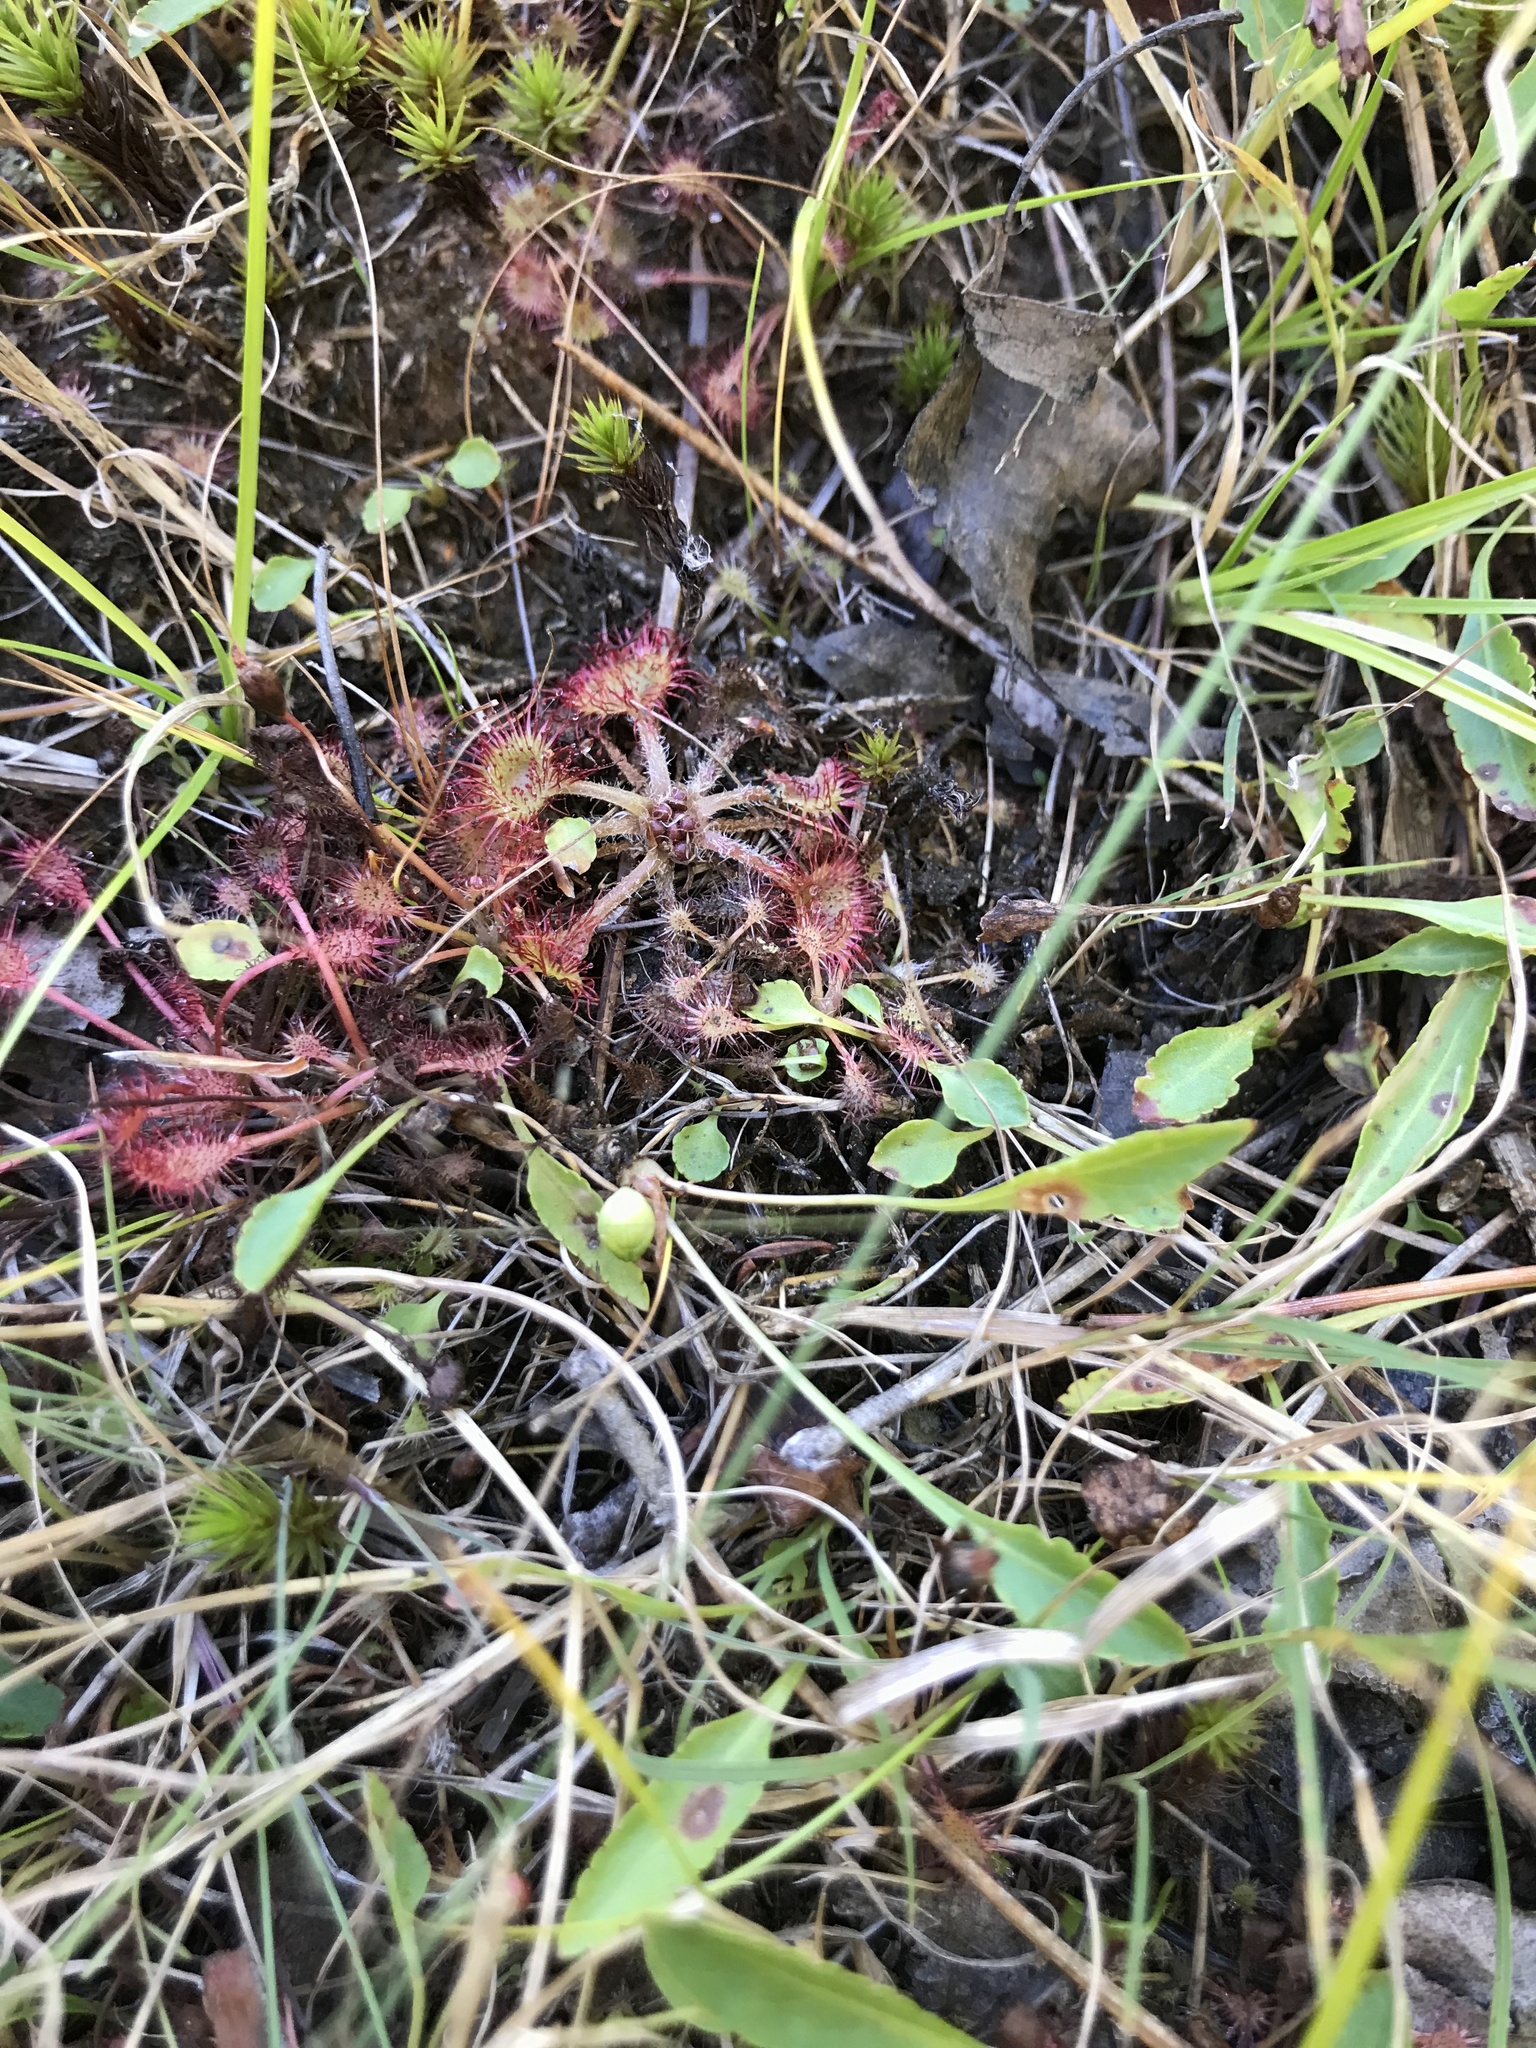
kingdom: Plantae
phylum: Tracheophyta
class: Magnoliopsida
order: Caryophyllales
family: Droseraceae
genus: Drosera
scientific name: Drosera rotundifolia
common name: Round-leaved sundew
